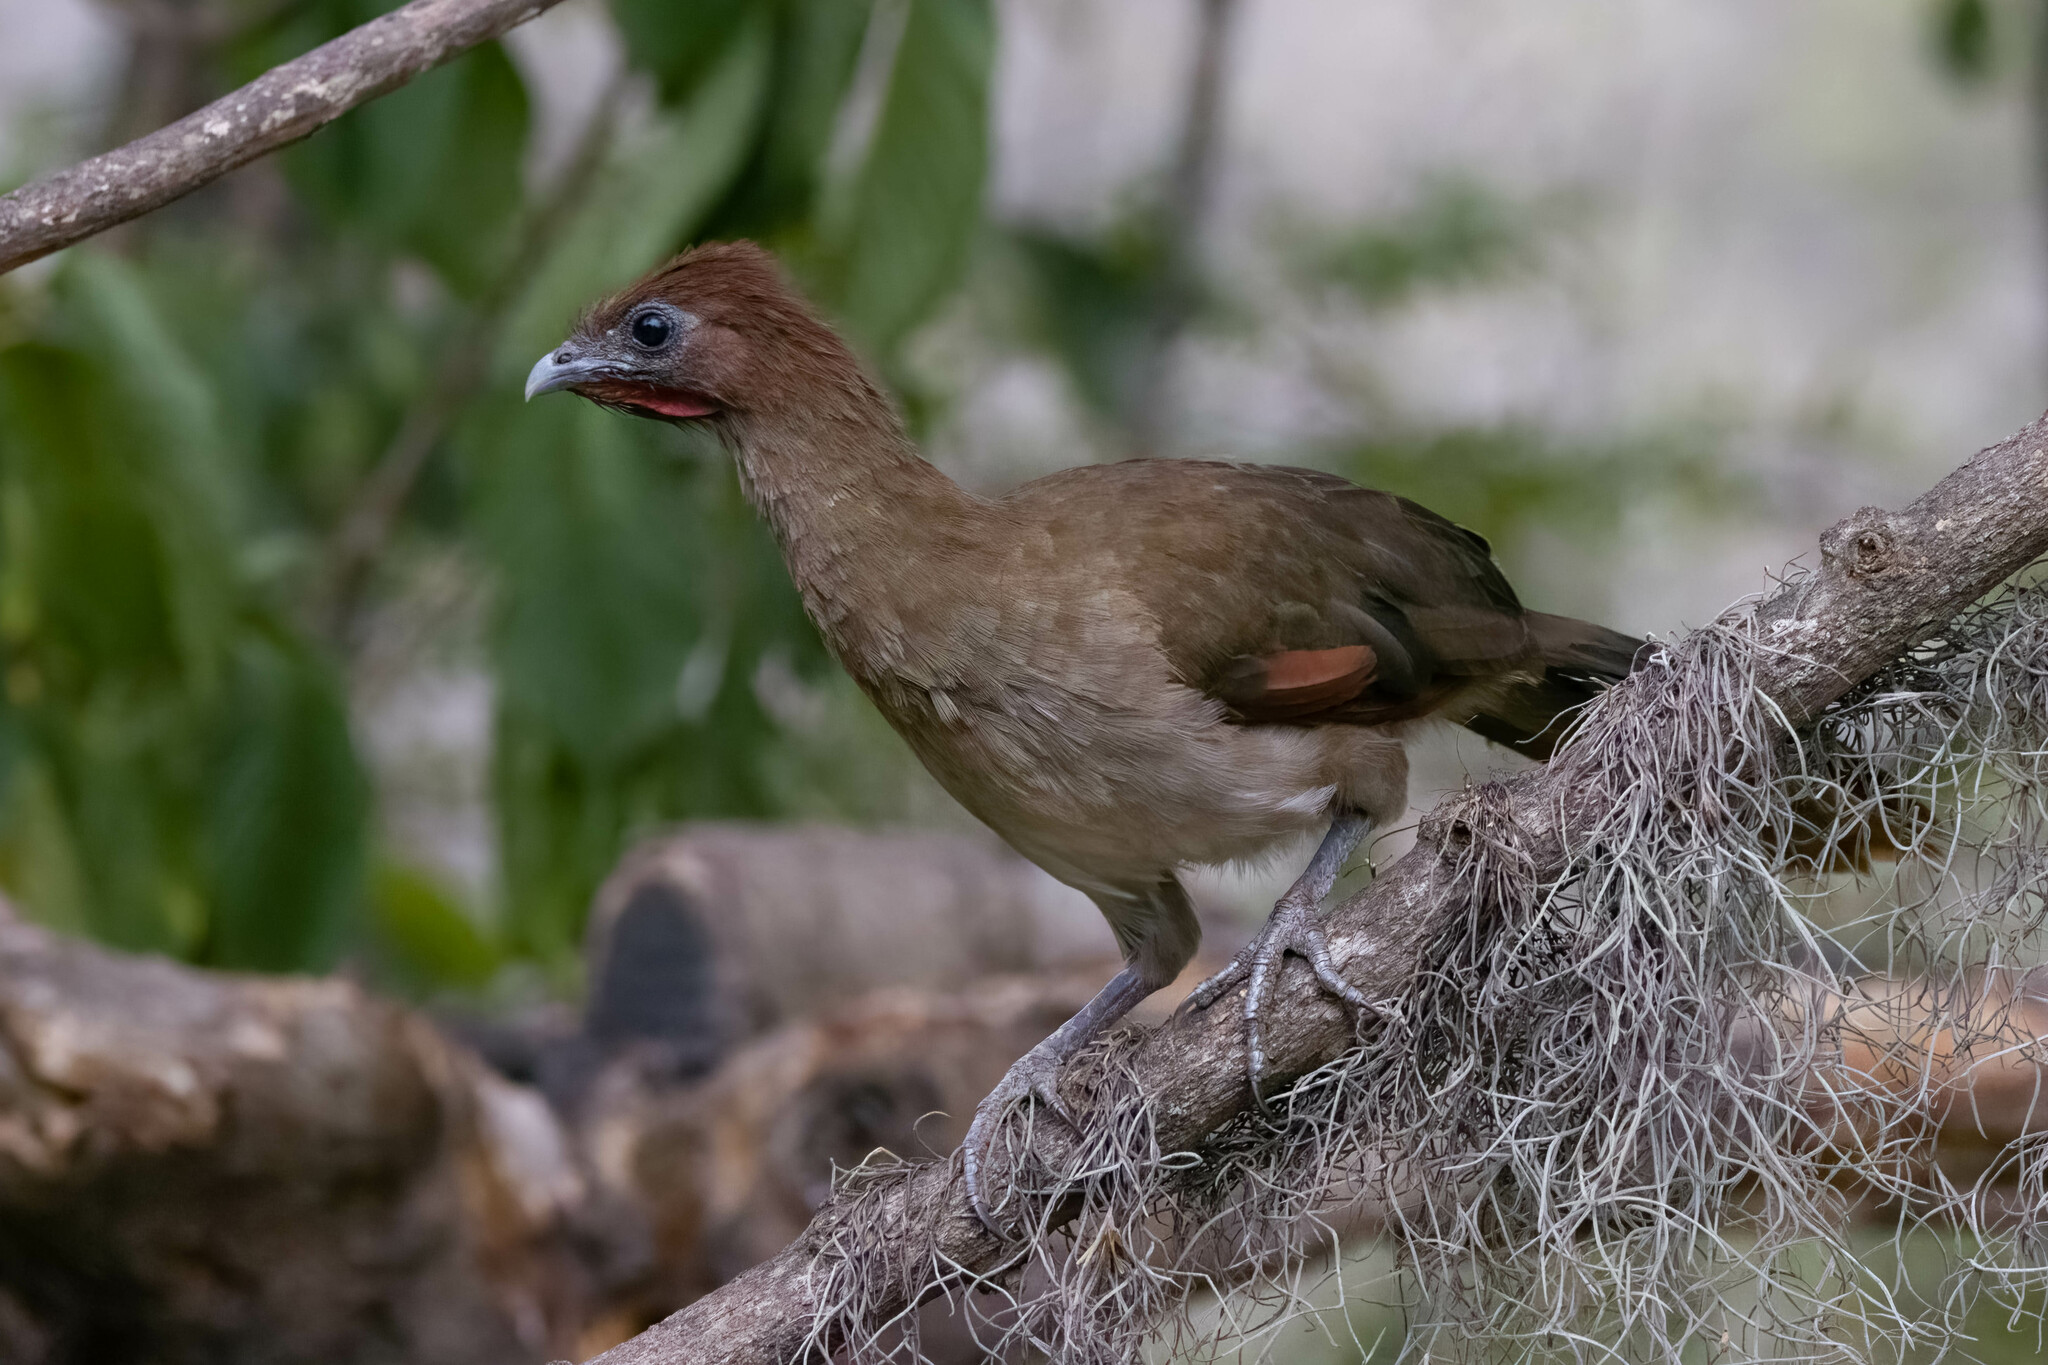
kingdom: Animalia
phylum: Chordata
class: Aves
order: Galliformes
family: Cracidae
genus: Ortalis
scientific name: Ortalis erythroptera
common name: Rufous-headed chachalaca
